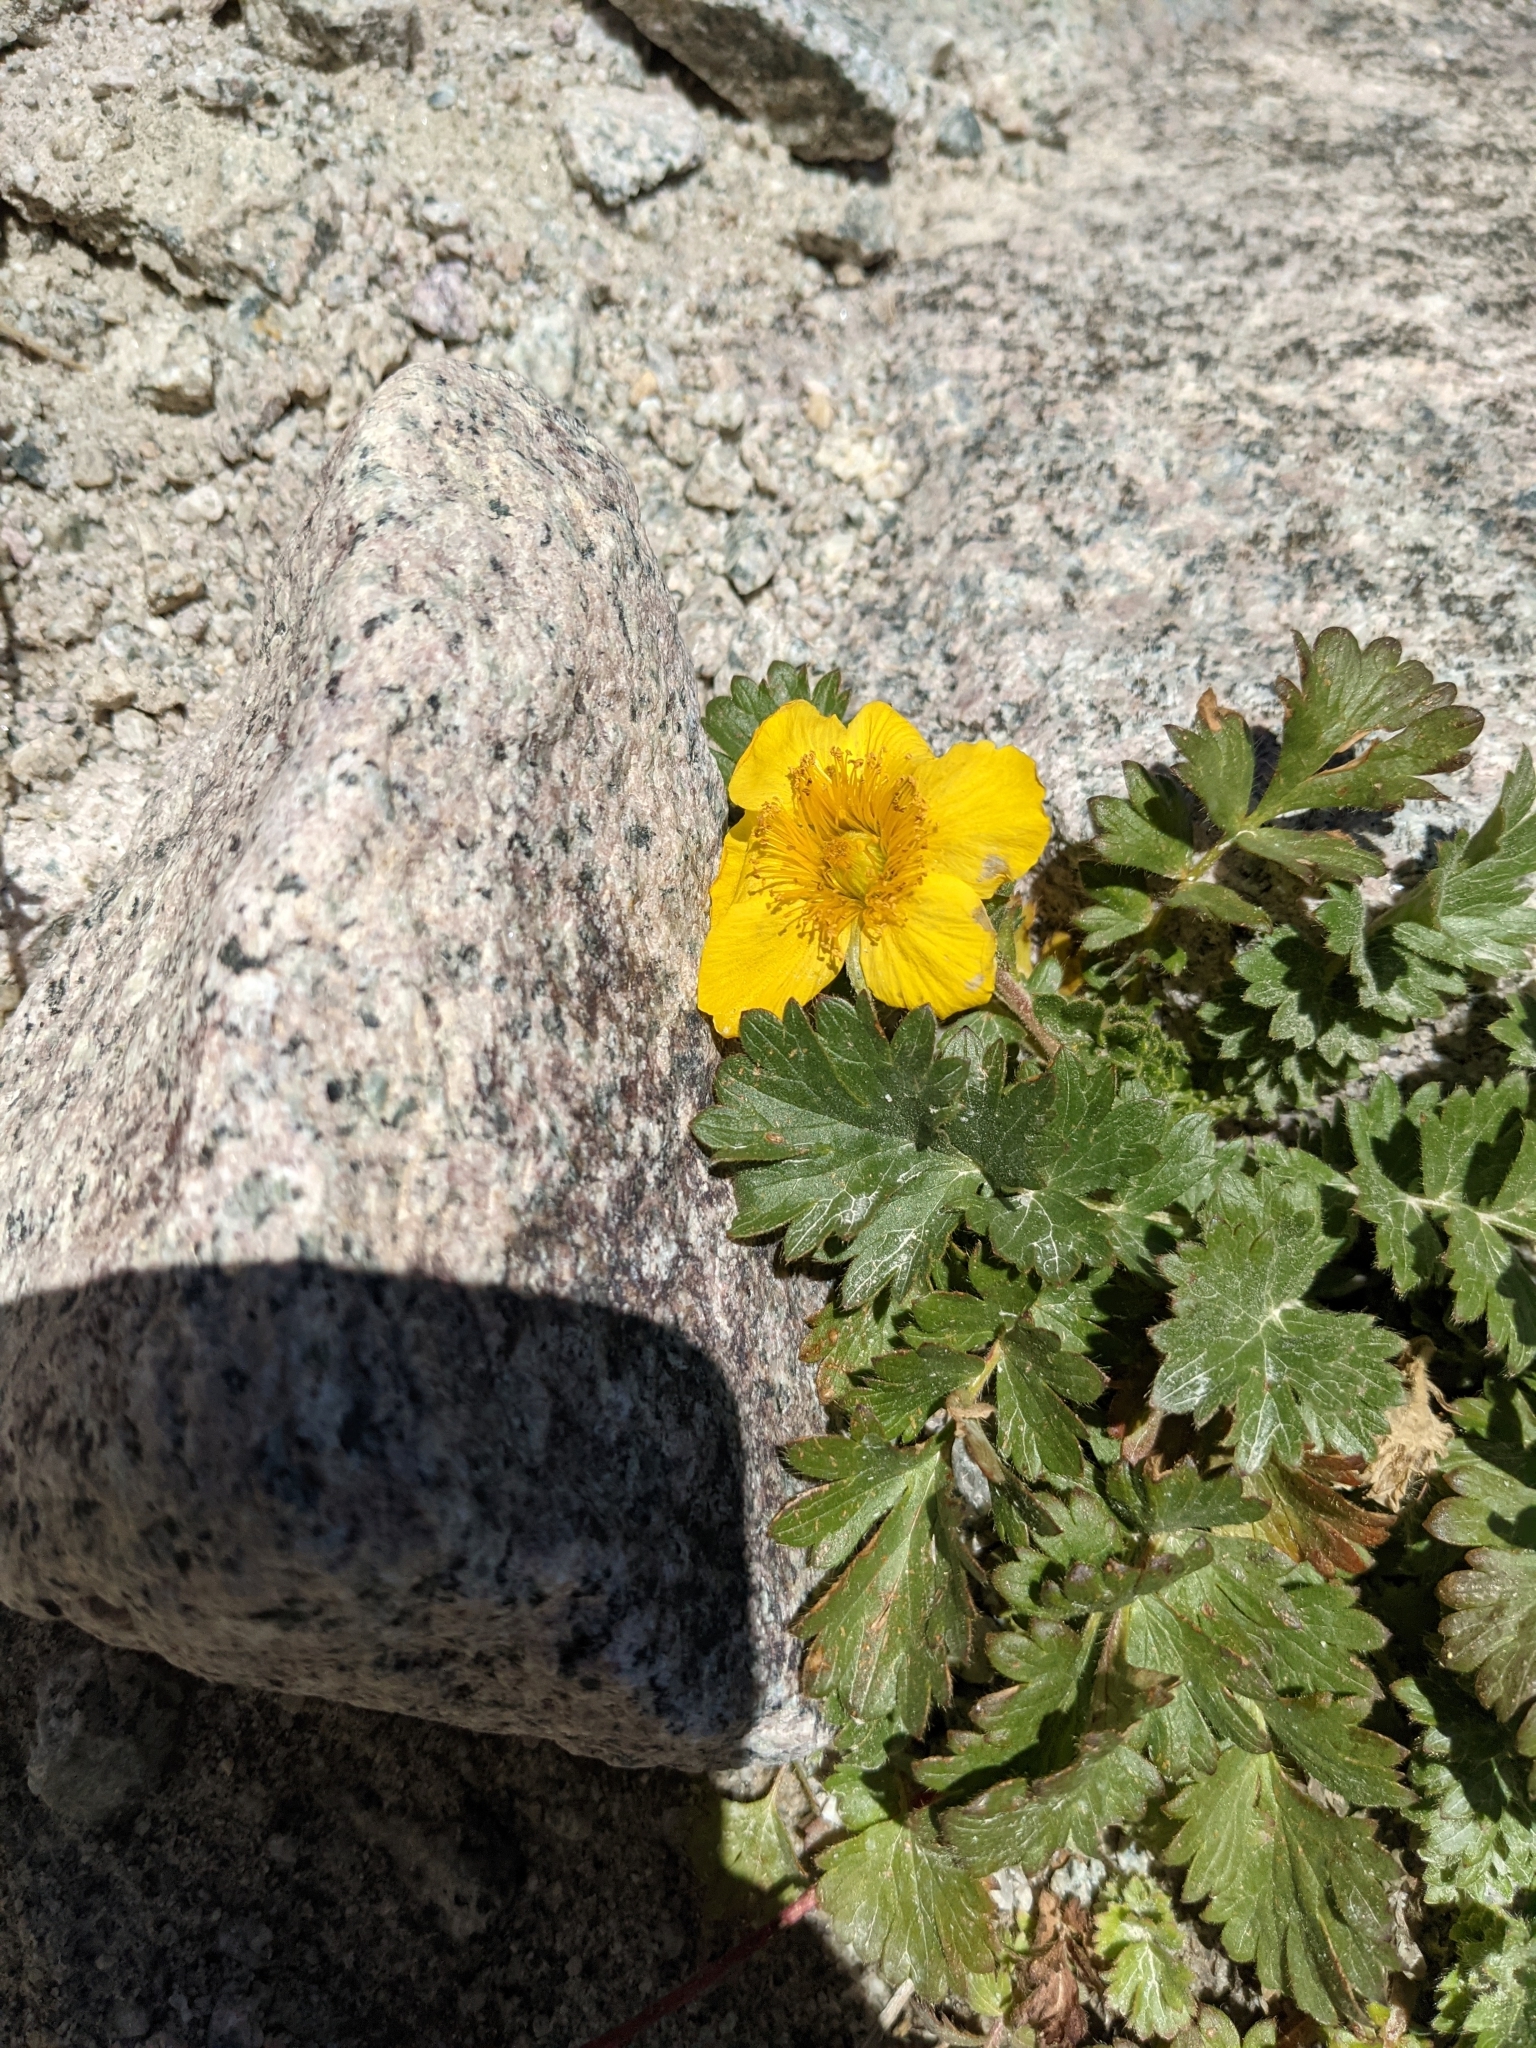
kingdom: Plantae
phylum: Tracheophyta
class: Magnoliopsida
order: Rosales
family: Rosaceae
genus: Geum
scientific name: Geum reptans
